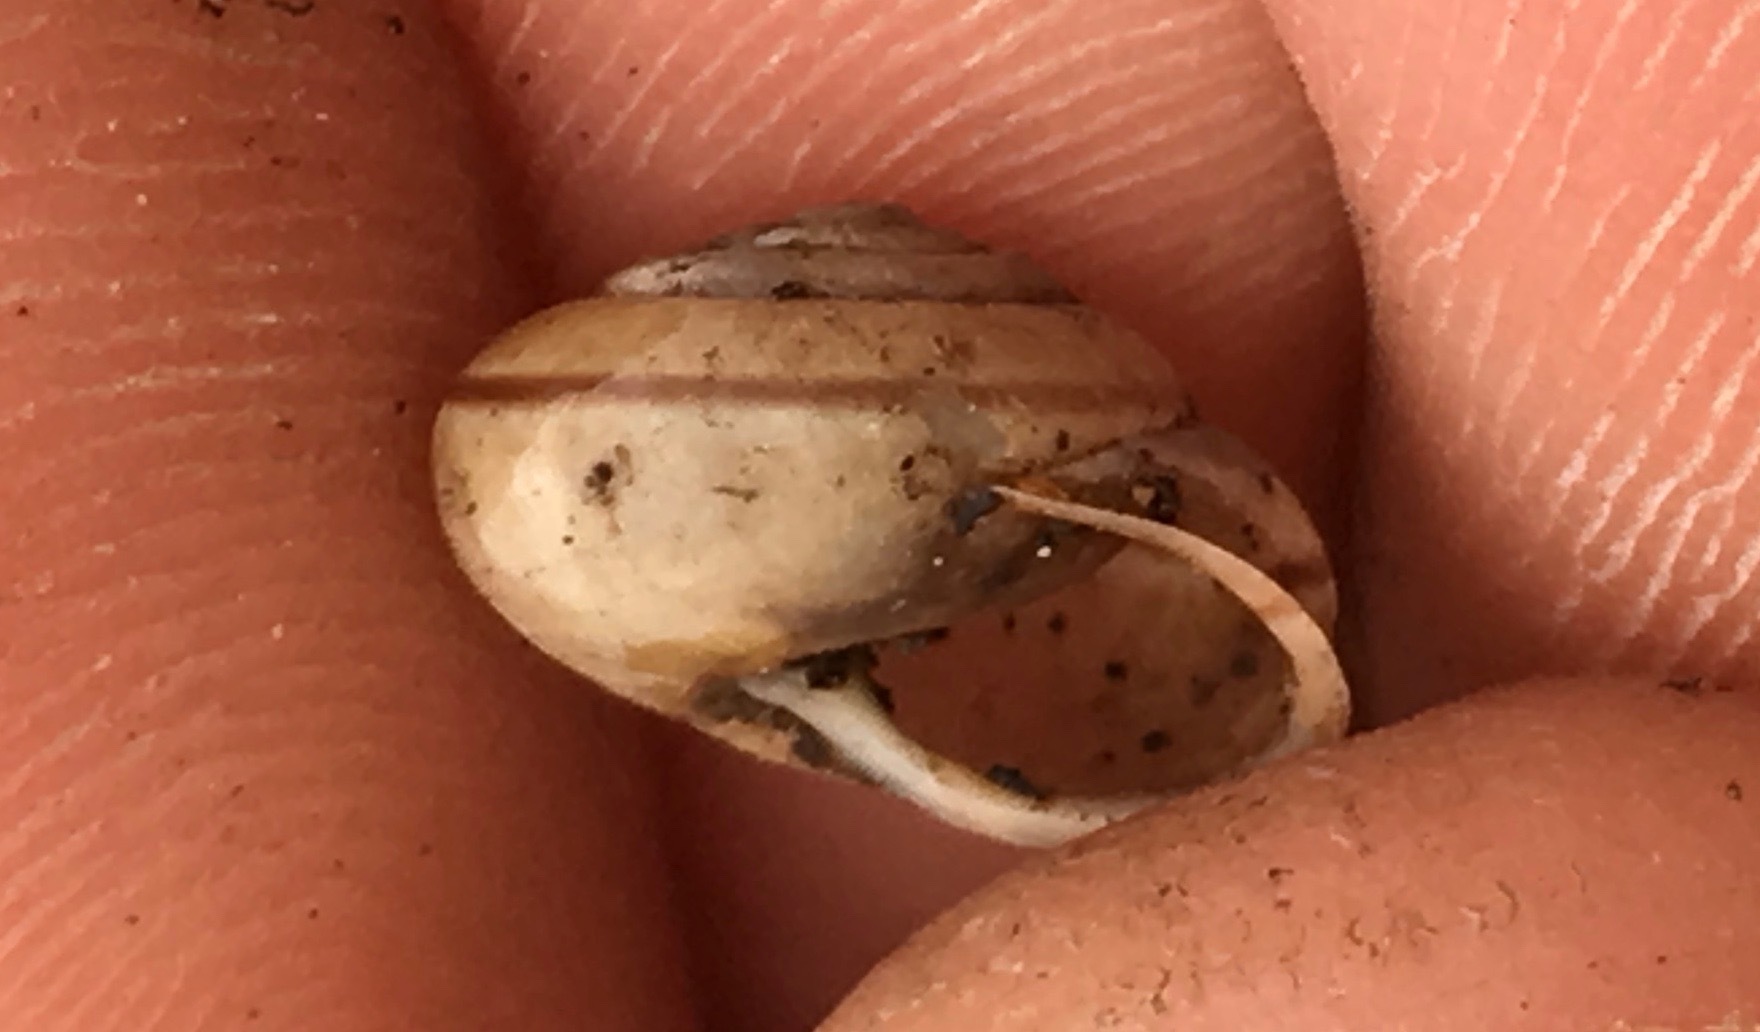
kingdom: Animalia
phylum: Mollusca
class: Gastropoda
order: Stylommatophora
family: Xanthonychidae
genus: Micrarionta
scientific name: Micrarionta gabbii
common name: Gabb's snail
